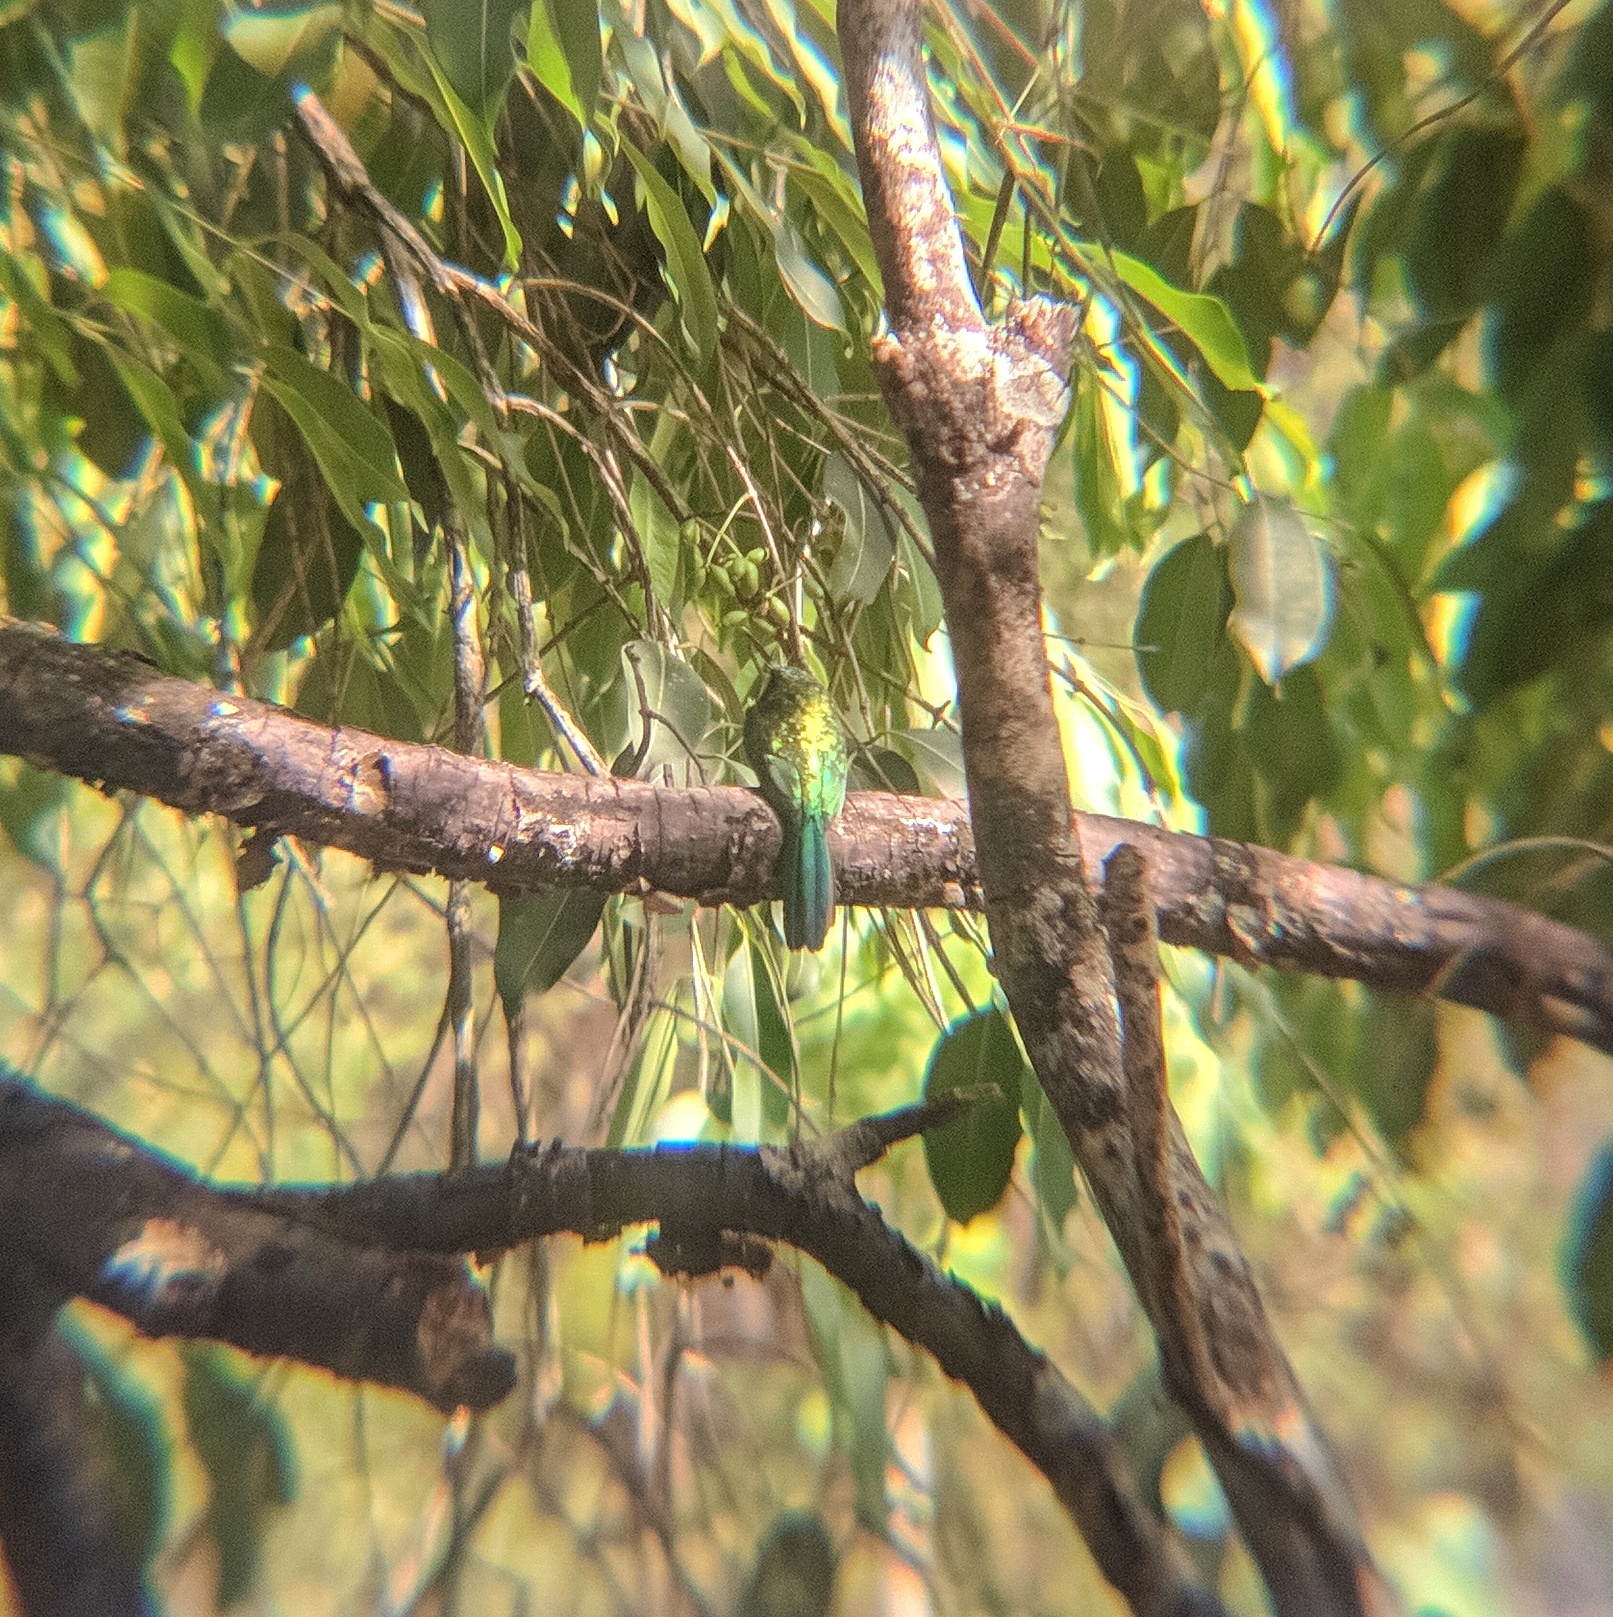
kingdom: Animalia
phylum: Chordata
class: Aves
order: Piciformes
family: Galbulidae
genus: Galbula
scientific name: Galbula ruficauda
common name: Rufous-tailed jacamar
